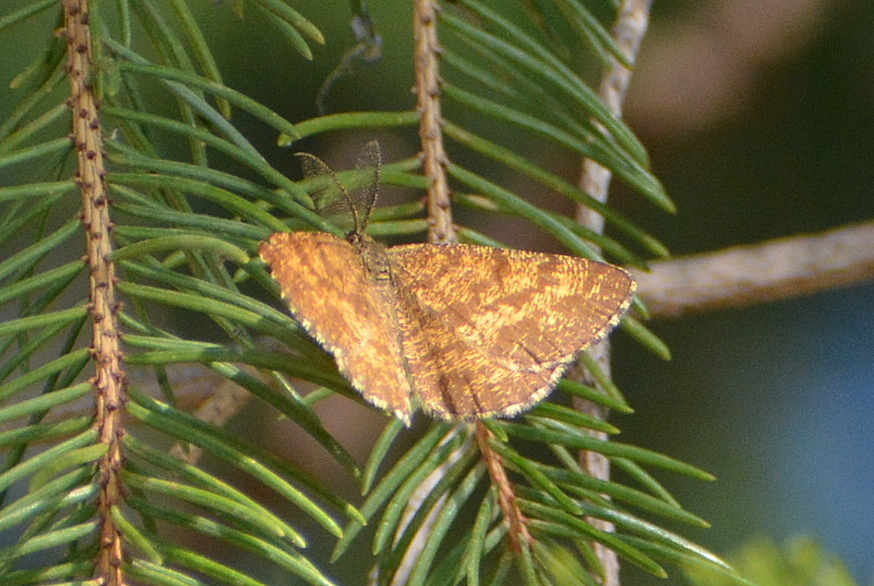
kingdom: Animalia
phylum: Arthropoda
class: Insecta
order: Lepidoptera
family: Geometridae
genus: Ematurga
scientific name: Ematurga atomaria
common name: Common heath
